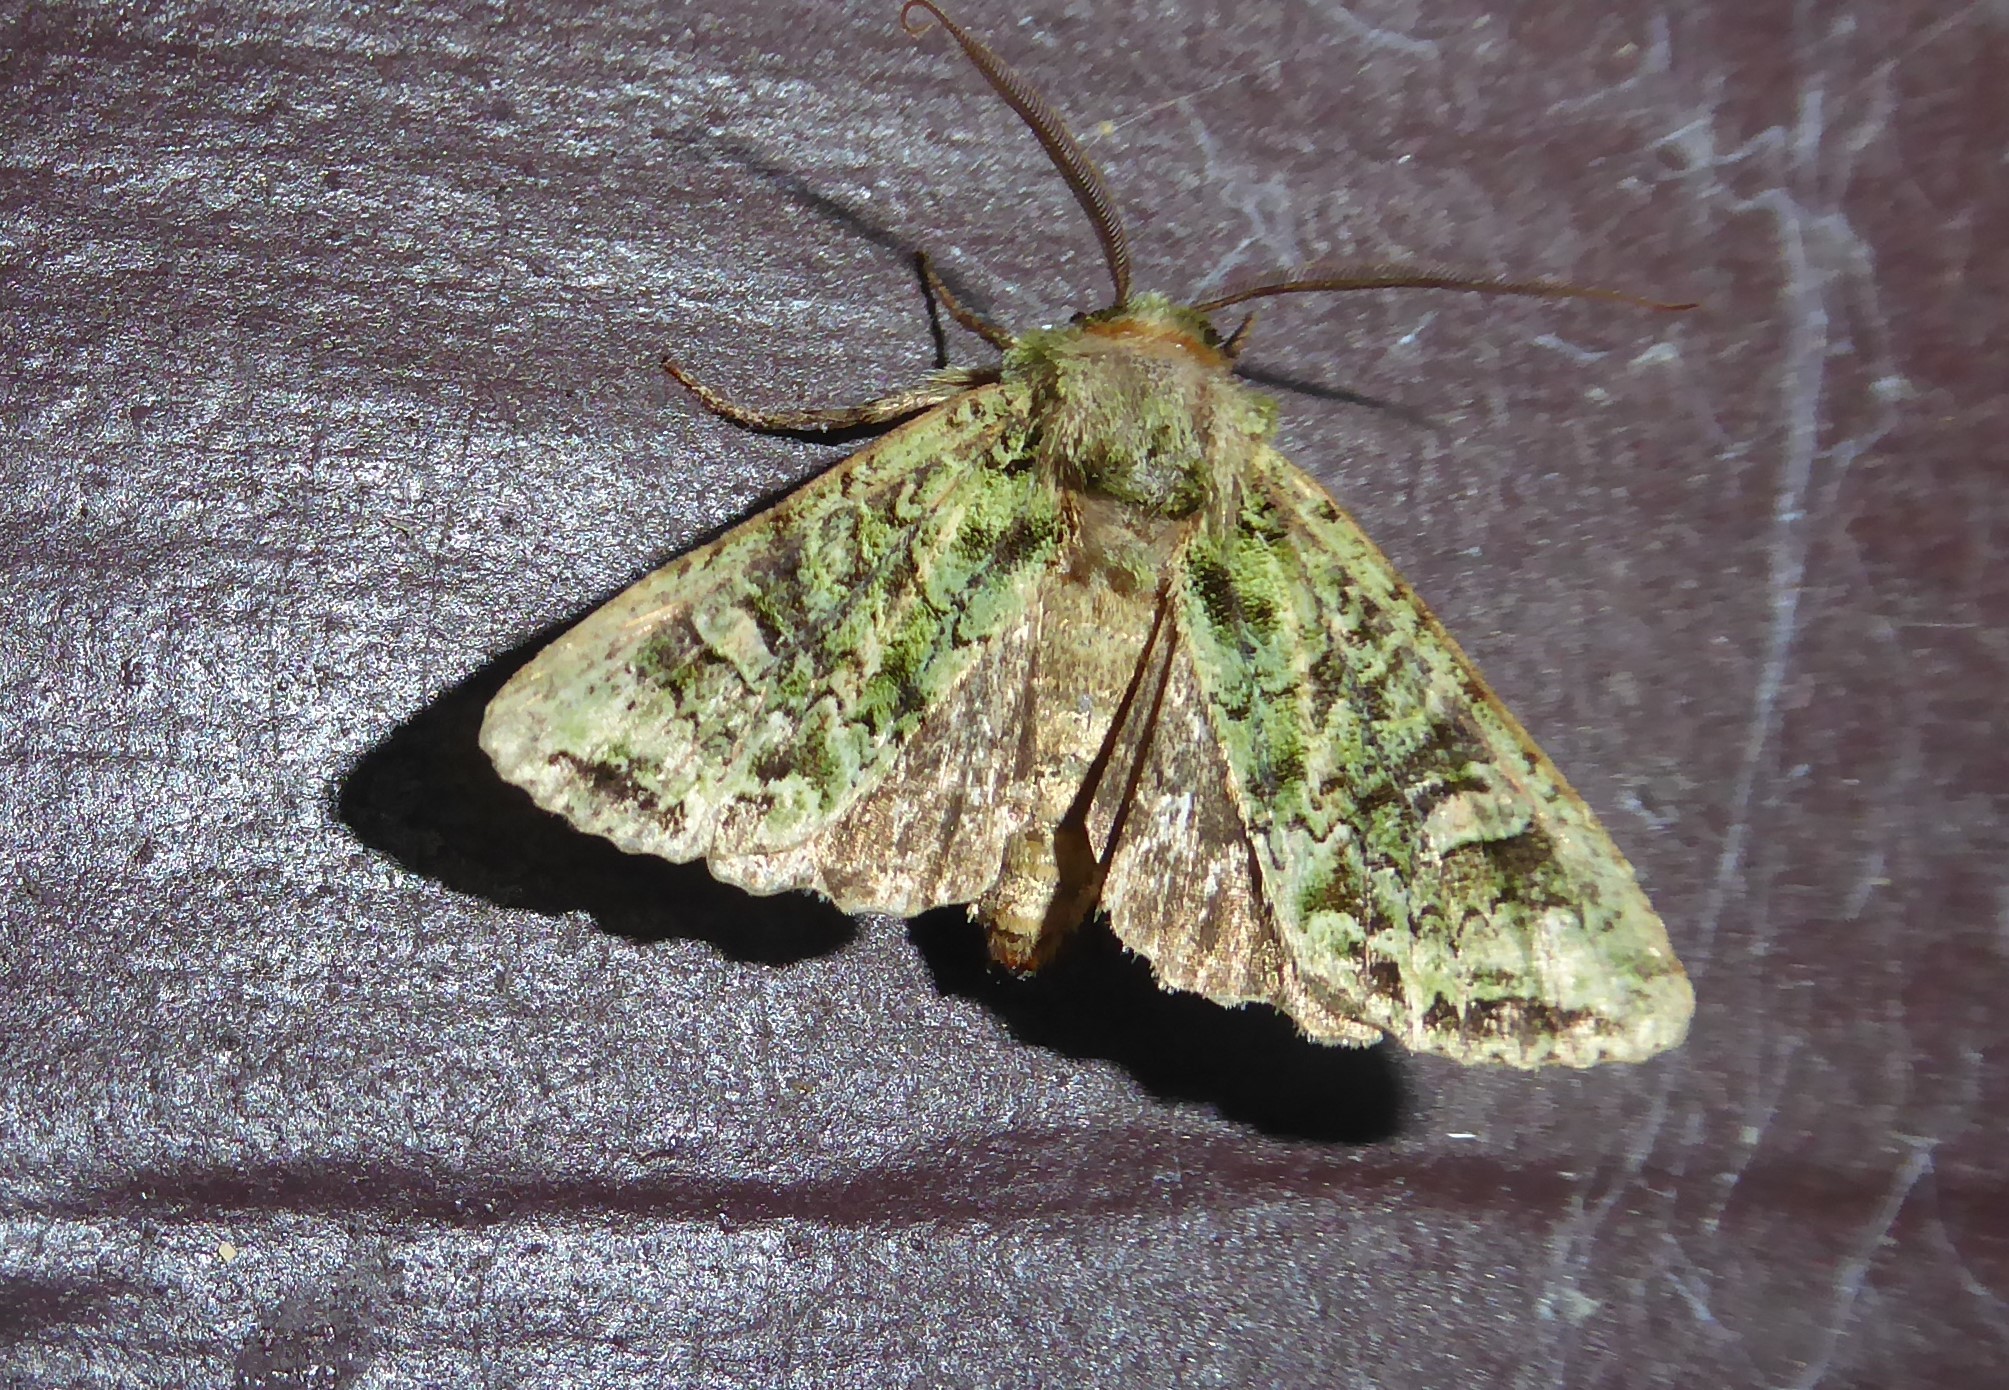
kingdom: Animalia
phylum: Arthropoda
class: Insecta
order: Lepidoptera
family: Noctuidae
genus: Ichneutica
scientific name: Ichneutica
